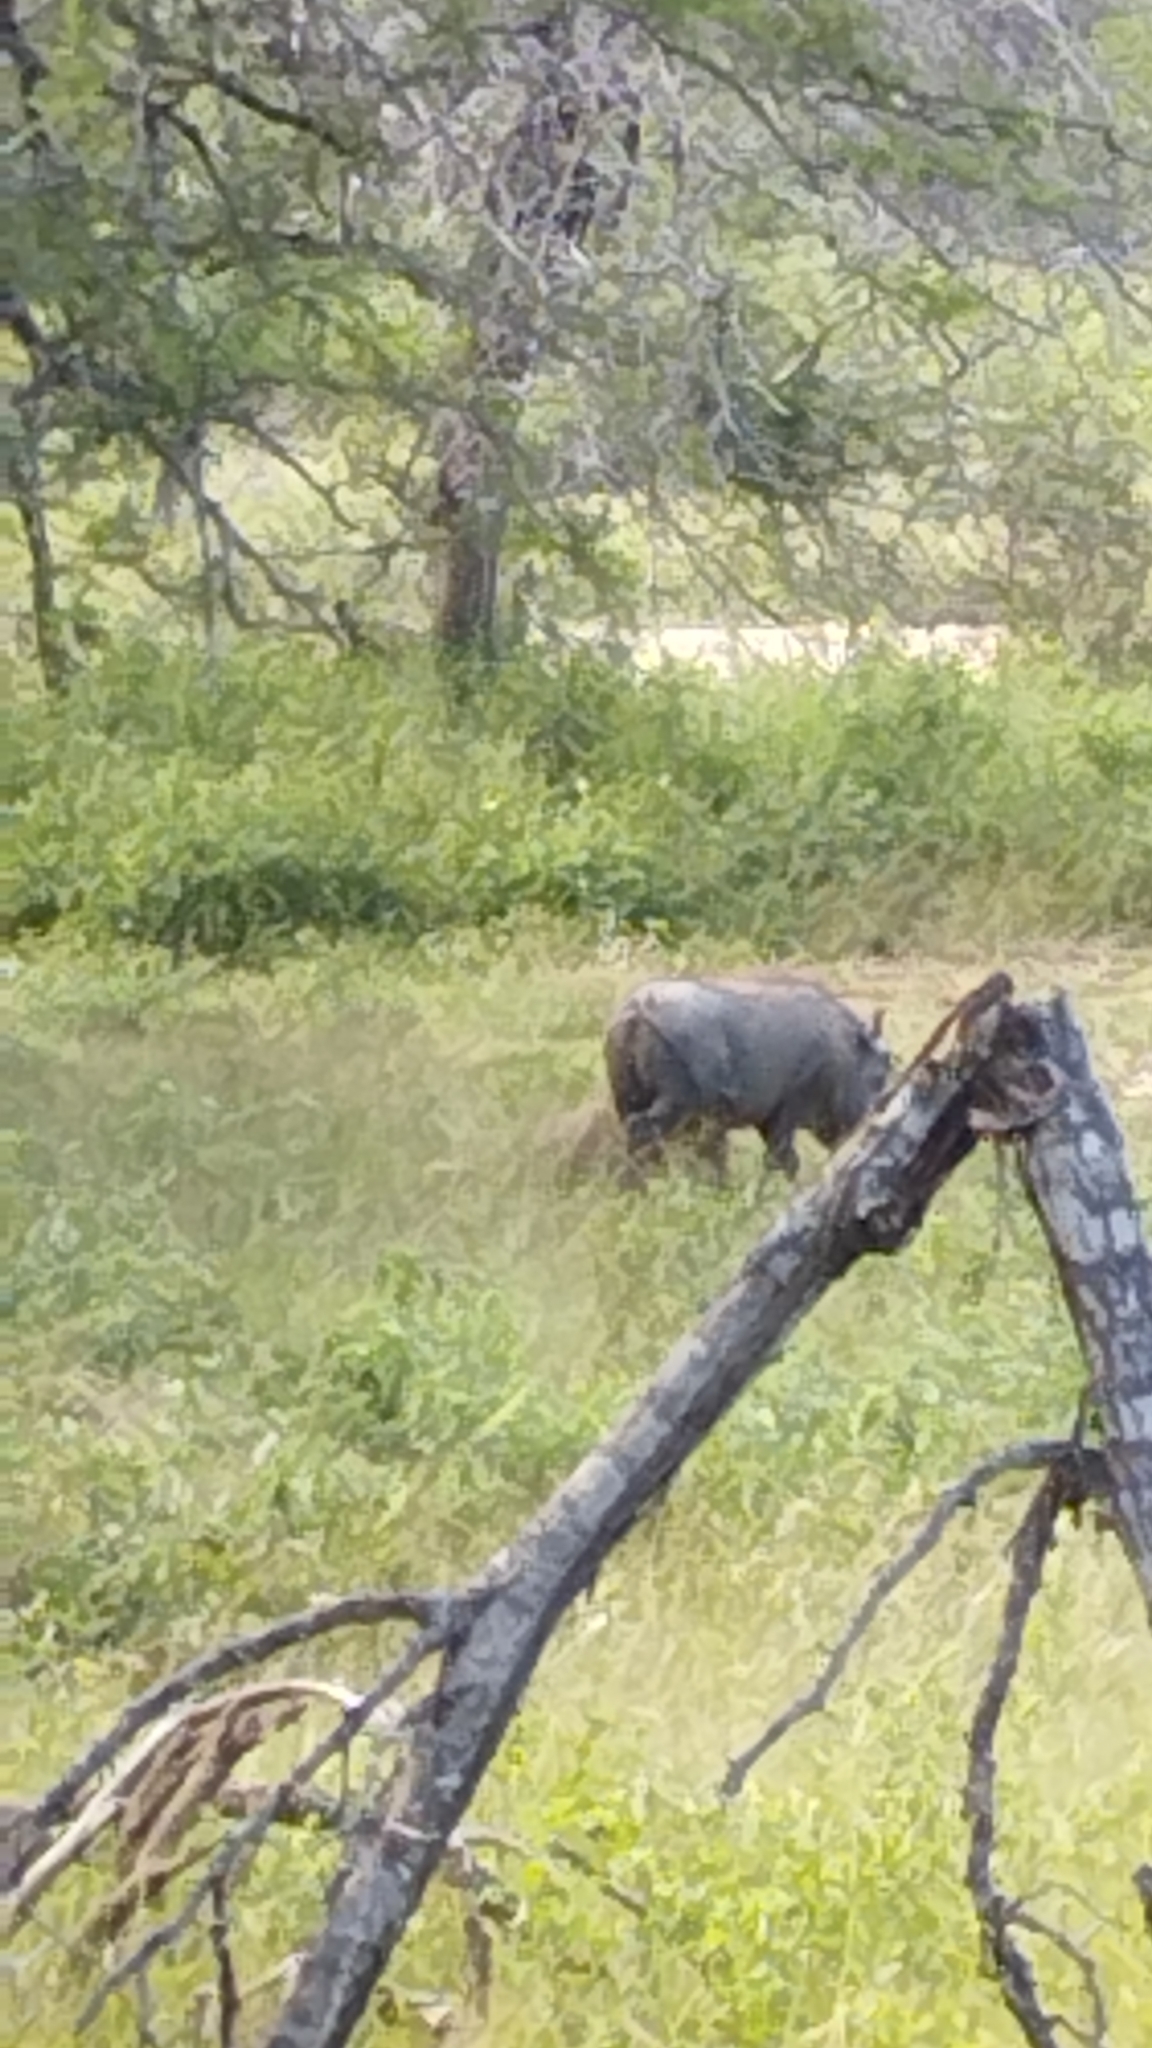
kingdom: Animalia
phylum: Chordata
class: Mammalia
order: Artiodactyla
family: Suidae
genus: Phacochoerus
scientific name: Phacochoerus africanus
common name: Common warthog
